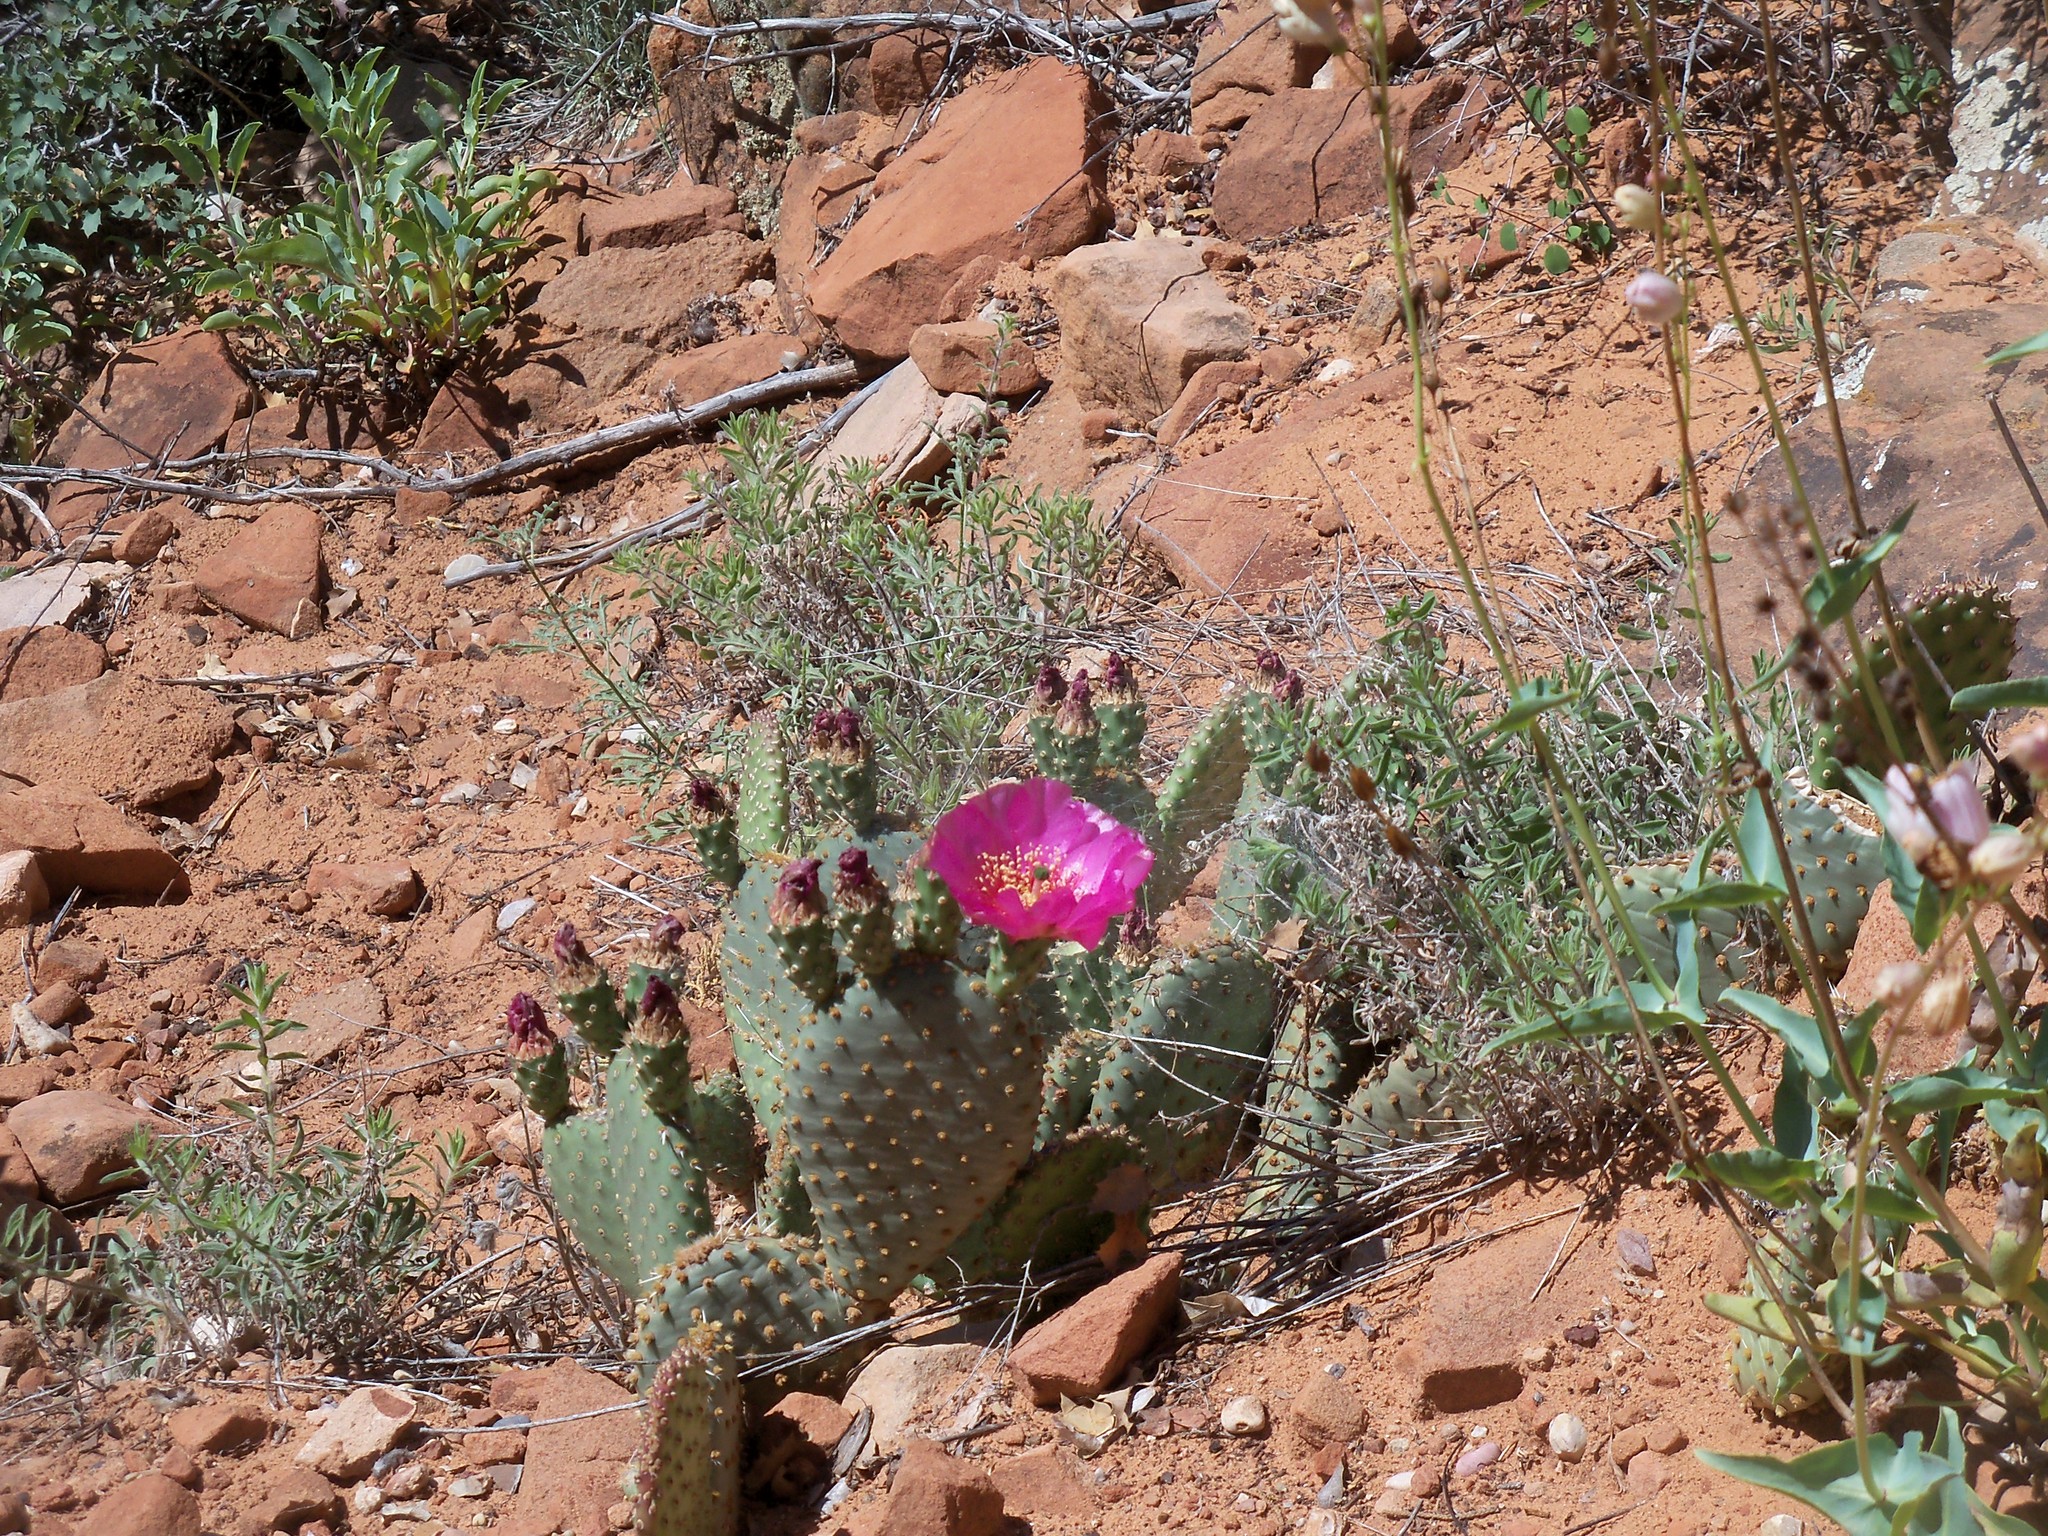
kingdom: Plantae
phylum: Tracheophyta
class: Magnoliopsida
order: Caryophyllales
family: Cactaceae
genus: Opuntia
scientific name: Opuntia aurea
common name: Golden prickly-pear
